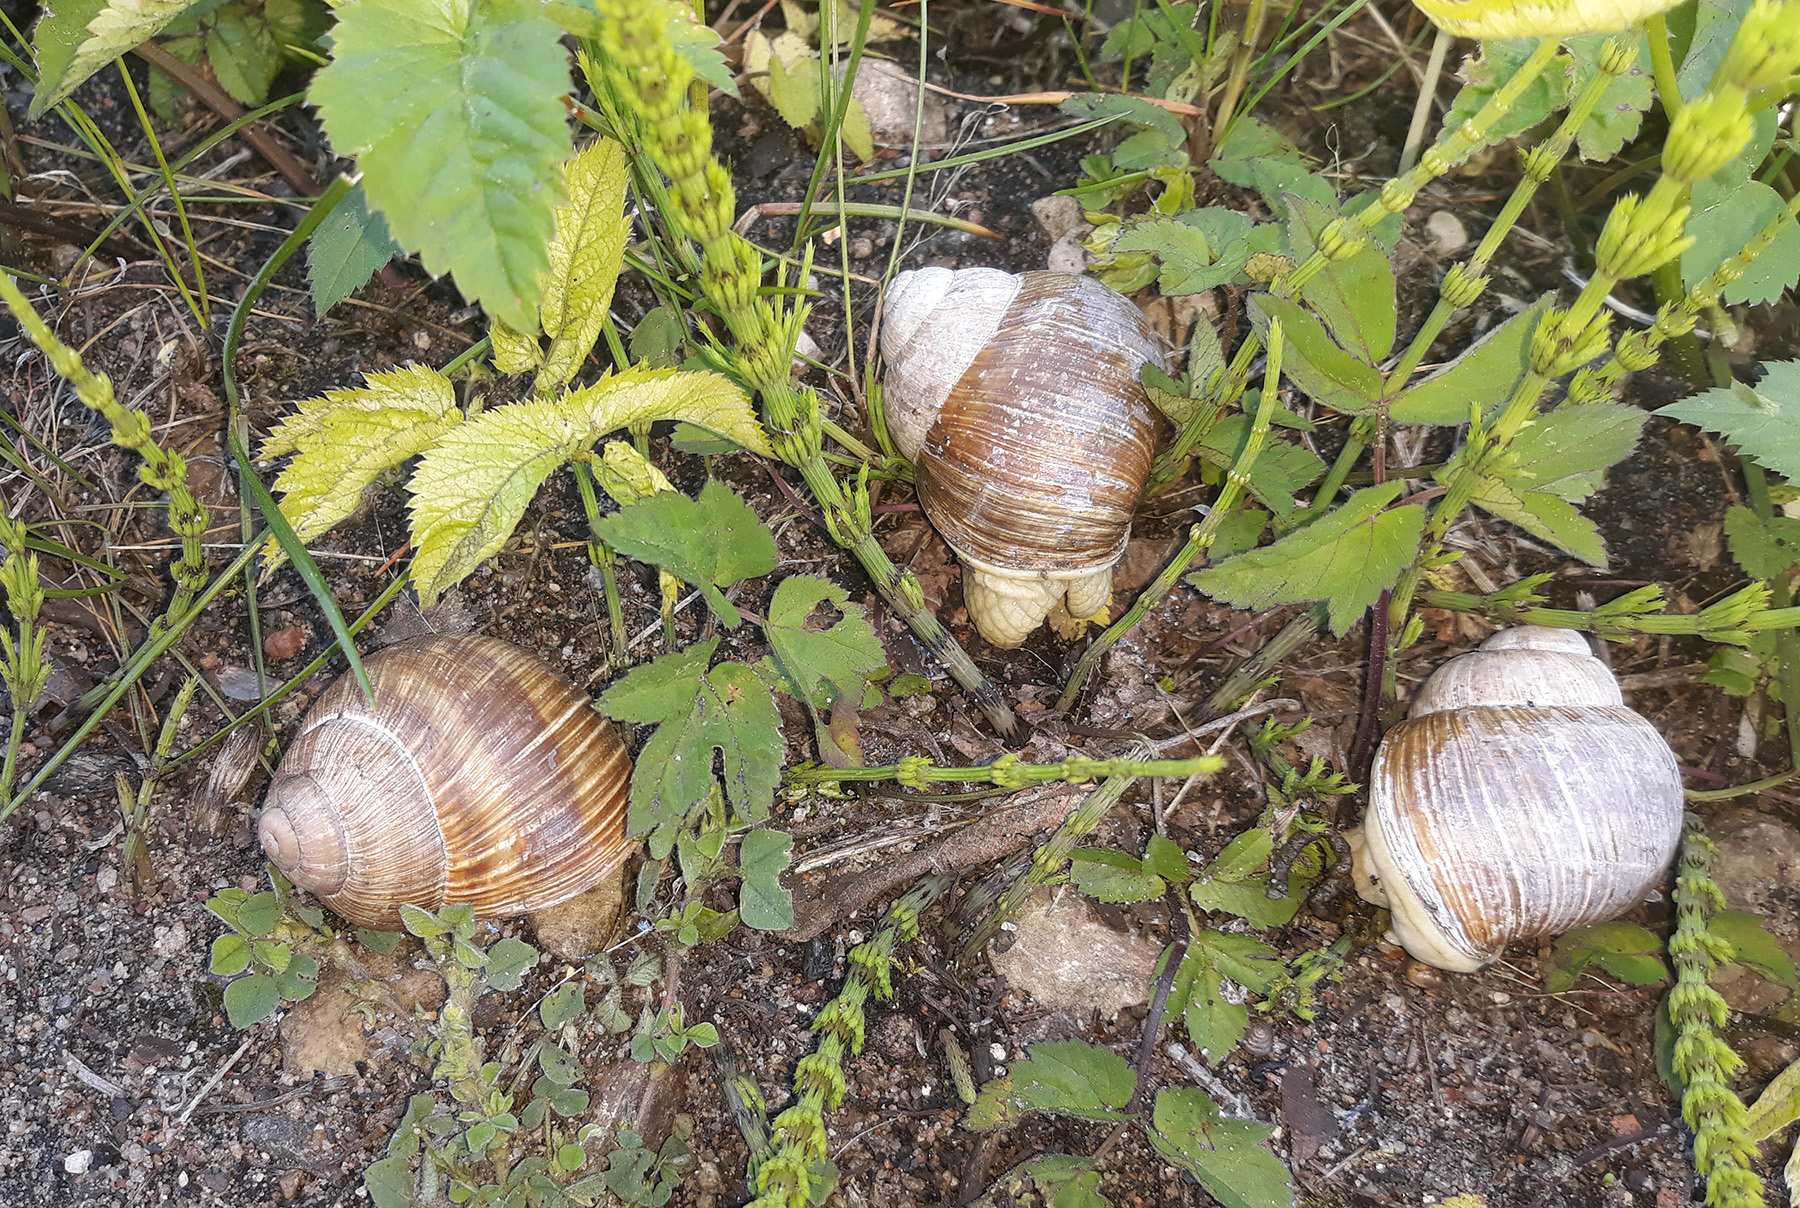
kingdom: Animalia
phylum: Mollusca
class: Gastropoda
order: Stylommatophora
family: Helicidae
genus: Helix
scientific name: Helix pomatia
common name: Roman snail
